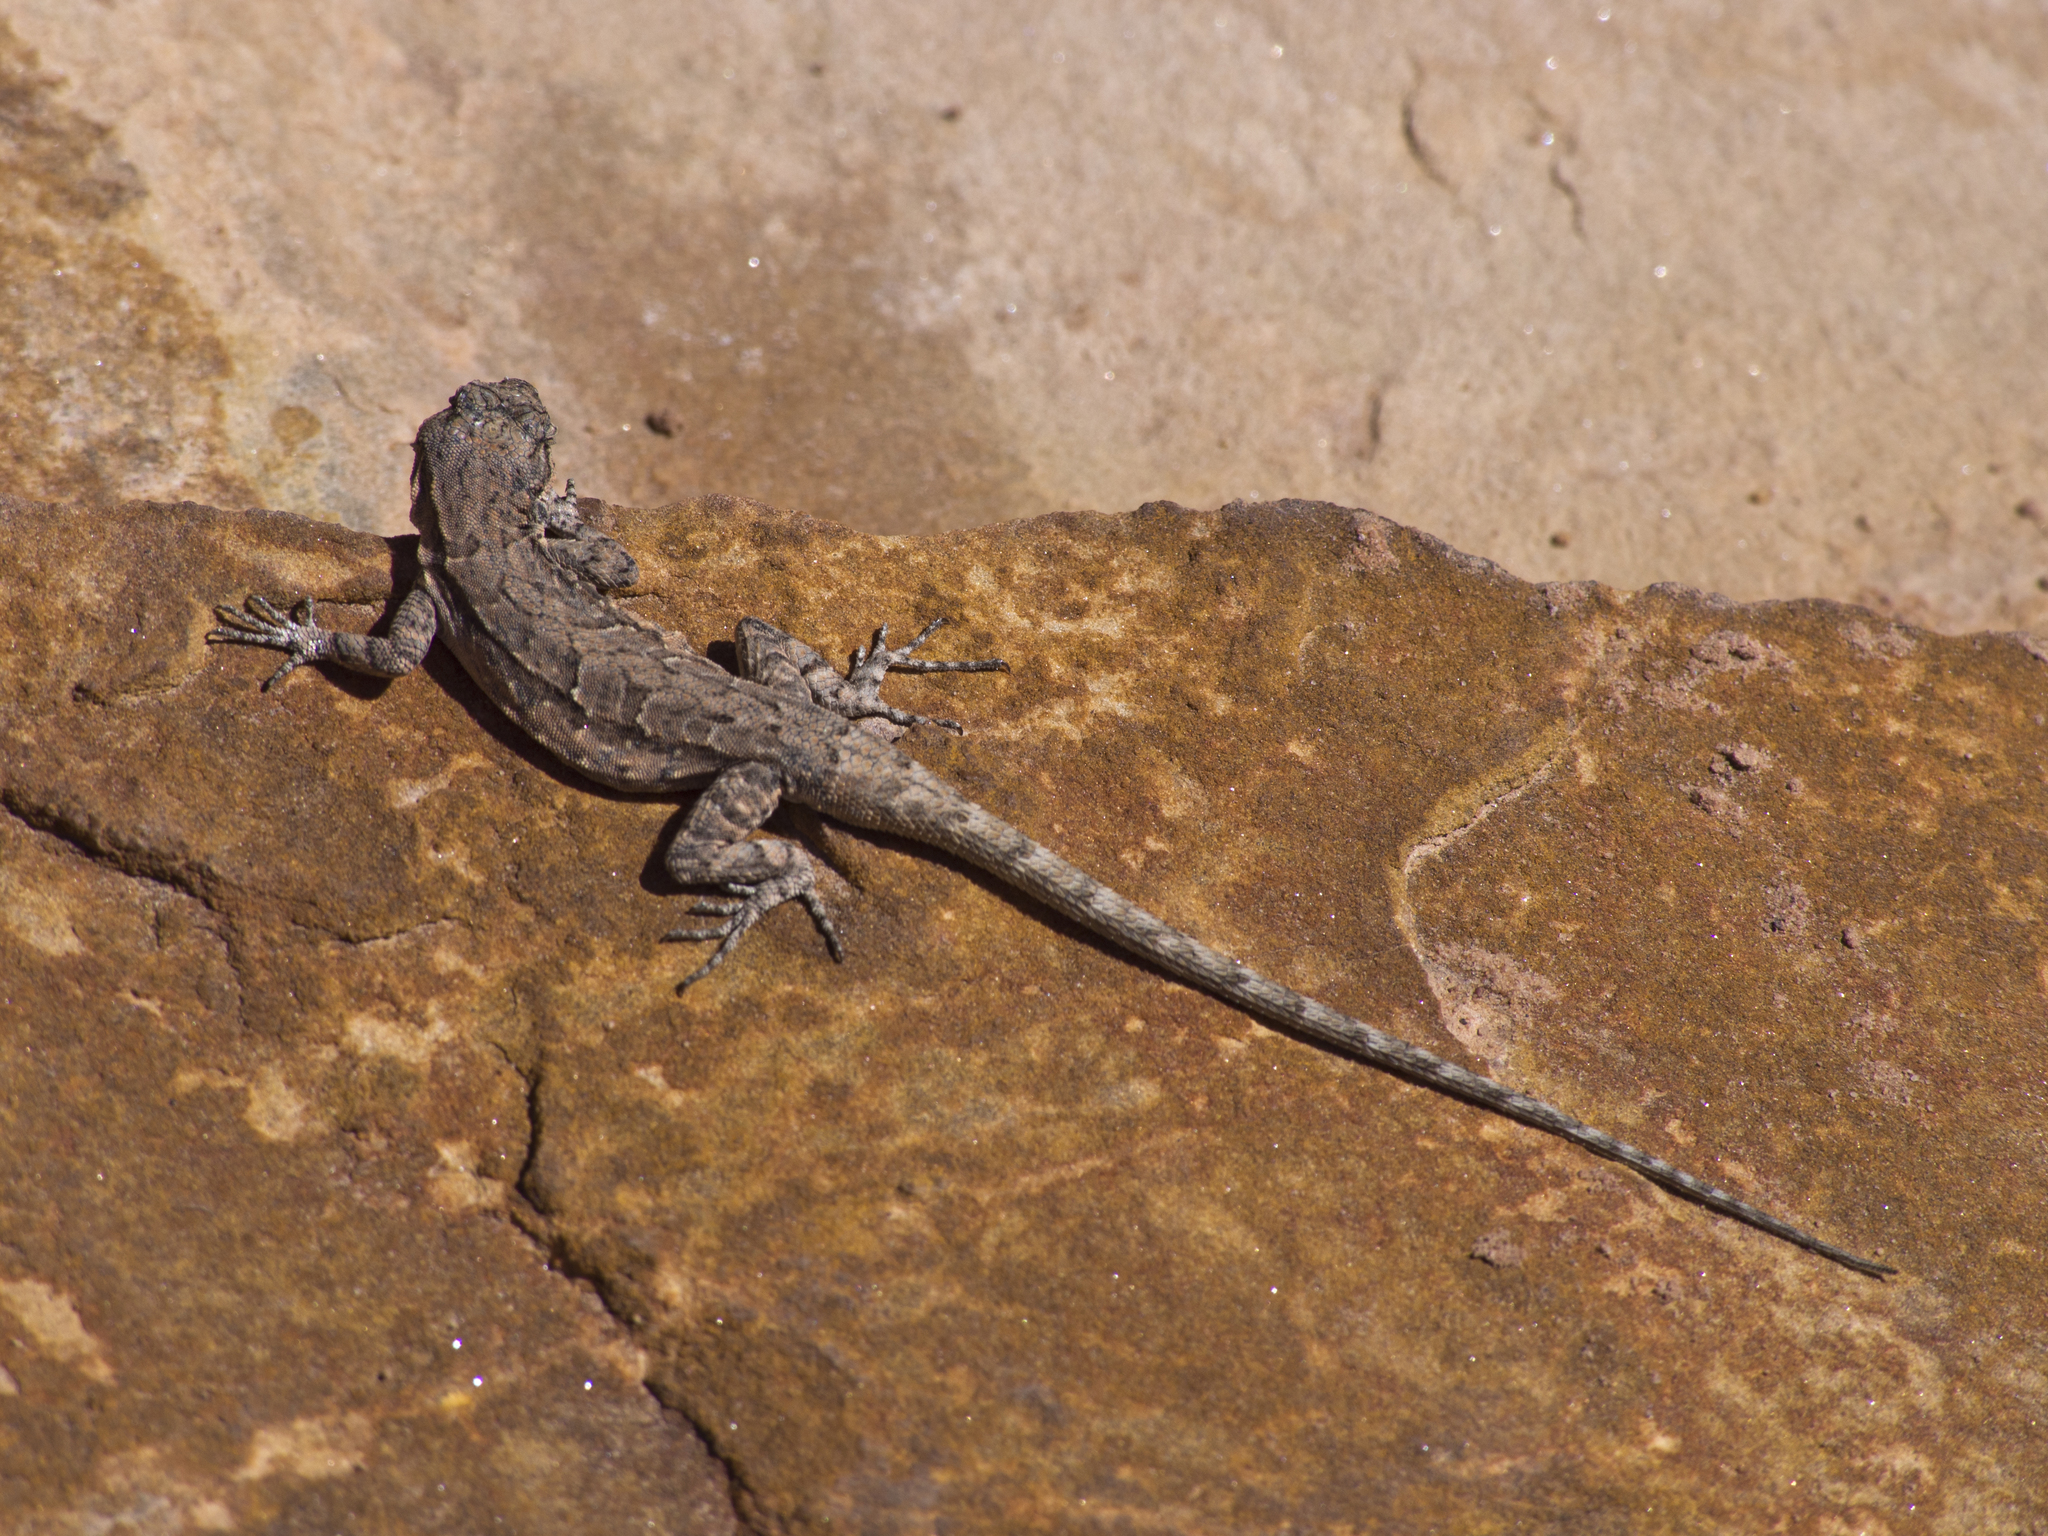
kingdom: Animalia
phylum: Chordata
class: Squamata
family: Phrynosomatidae
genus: Urosaurus
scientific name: Urosaurus ornatus
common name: Ornate tree lizard
